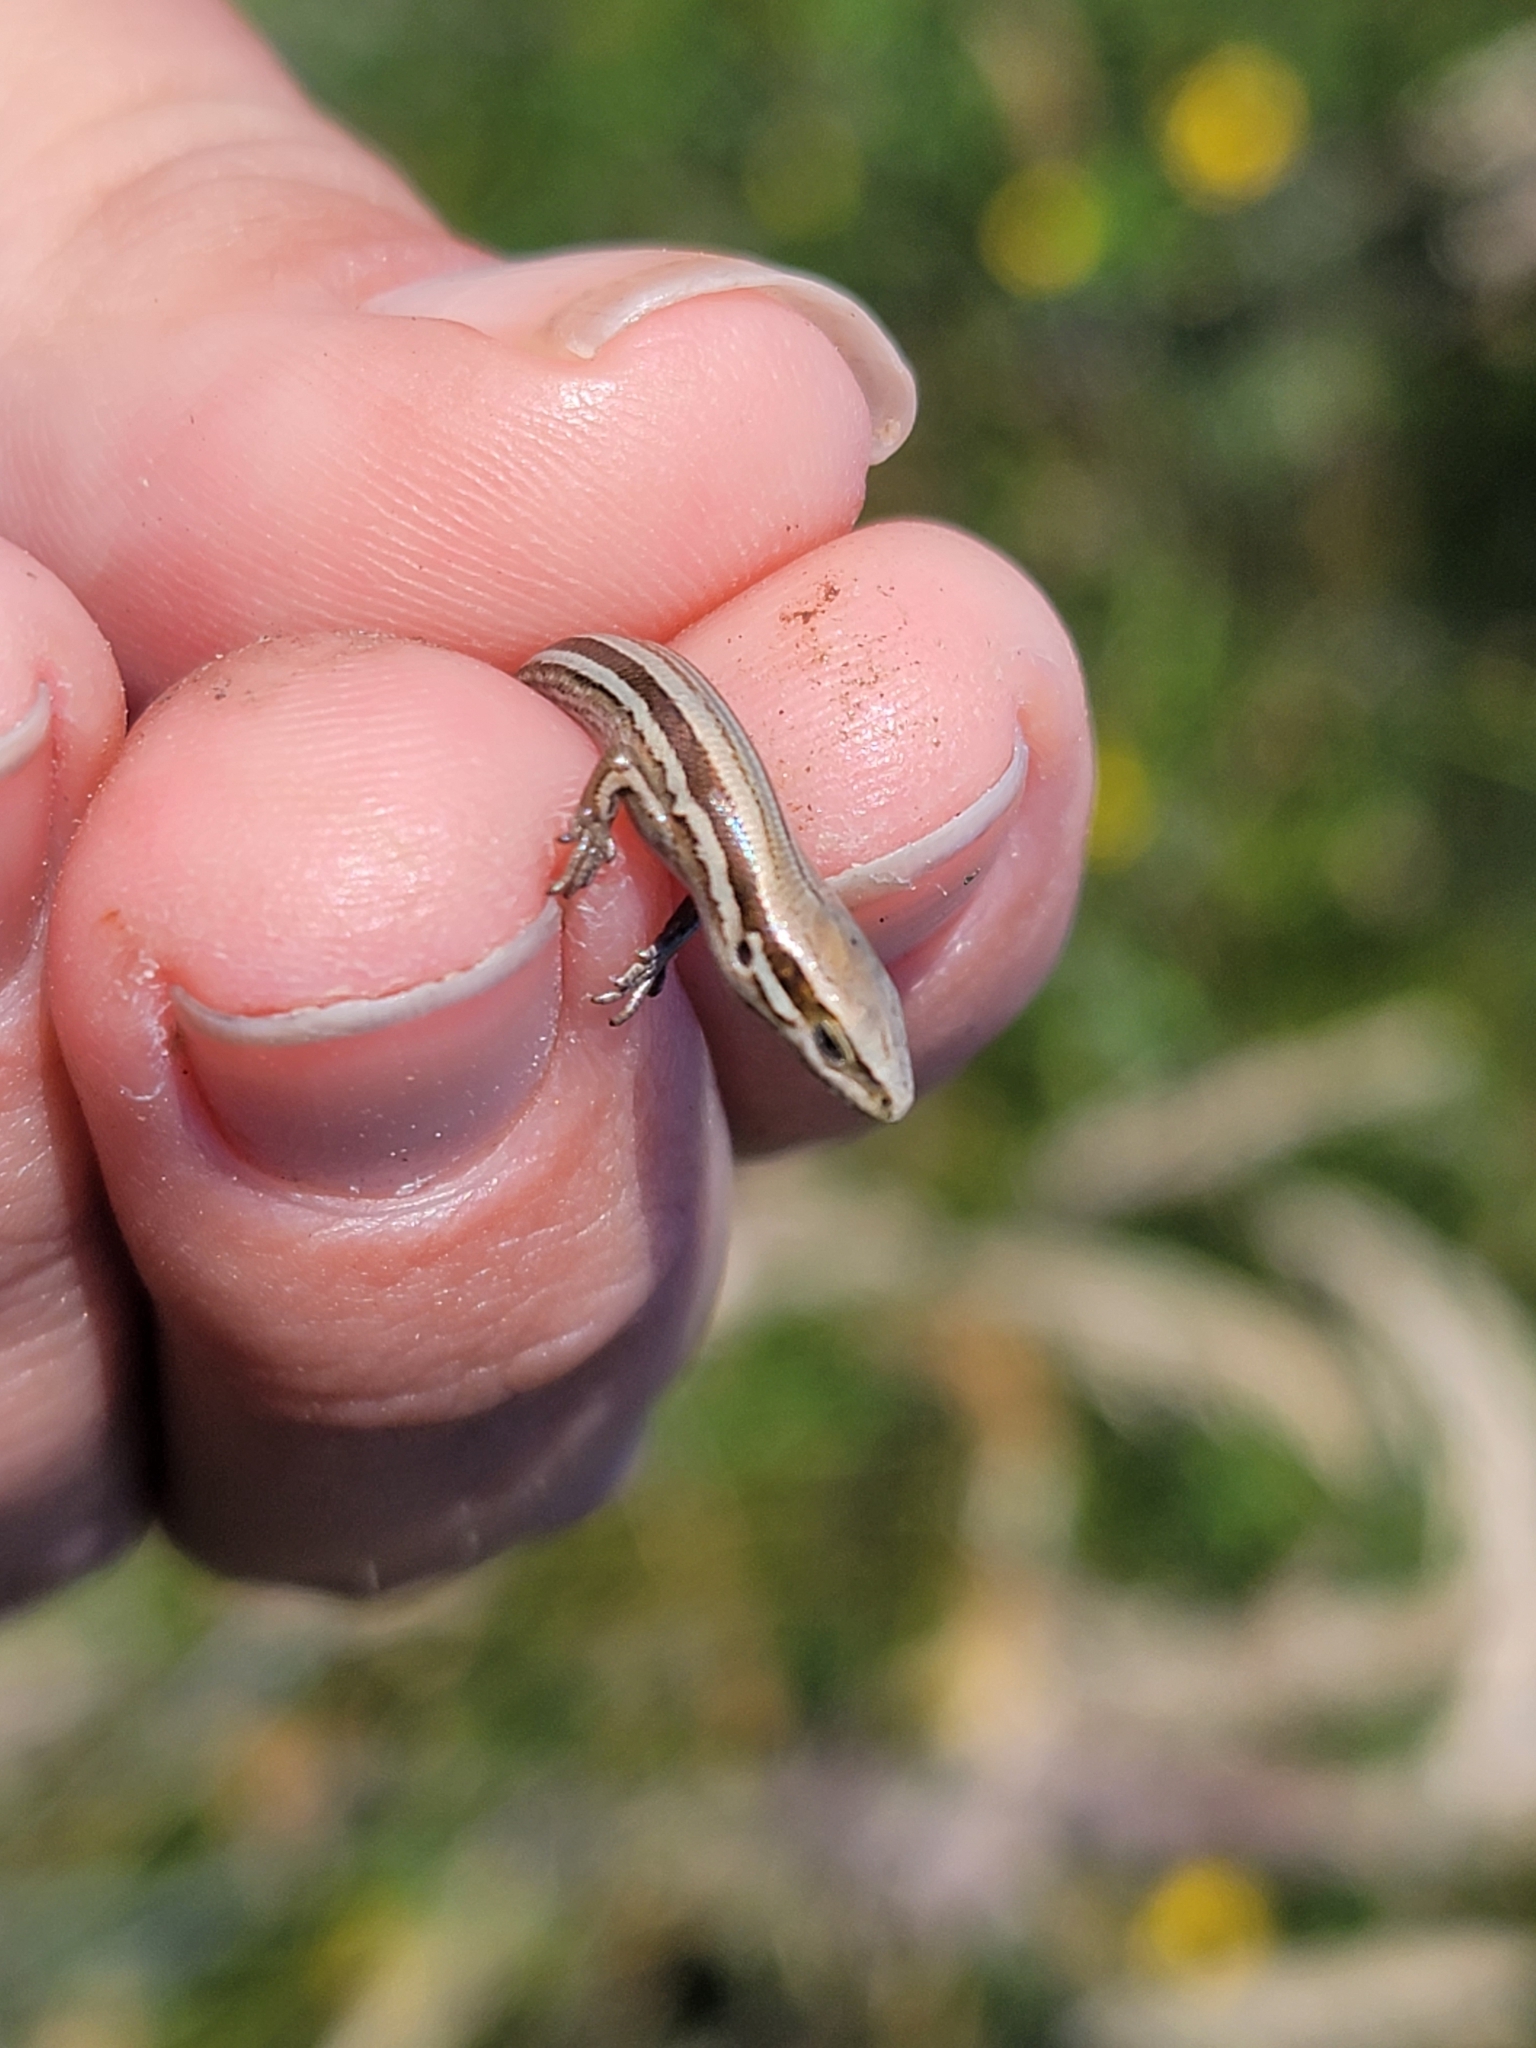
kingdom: Animalia
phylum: Chordata
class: Squamata
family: Scincidae
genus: Oligosoma
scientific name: Oligosoma polychroma
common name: Common new zealand skink
